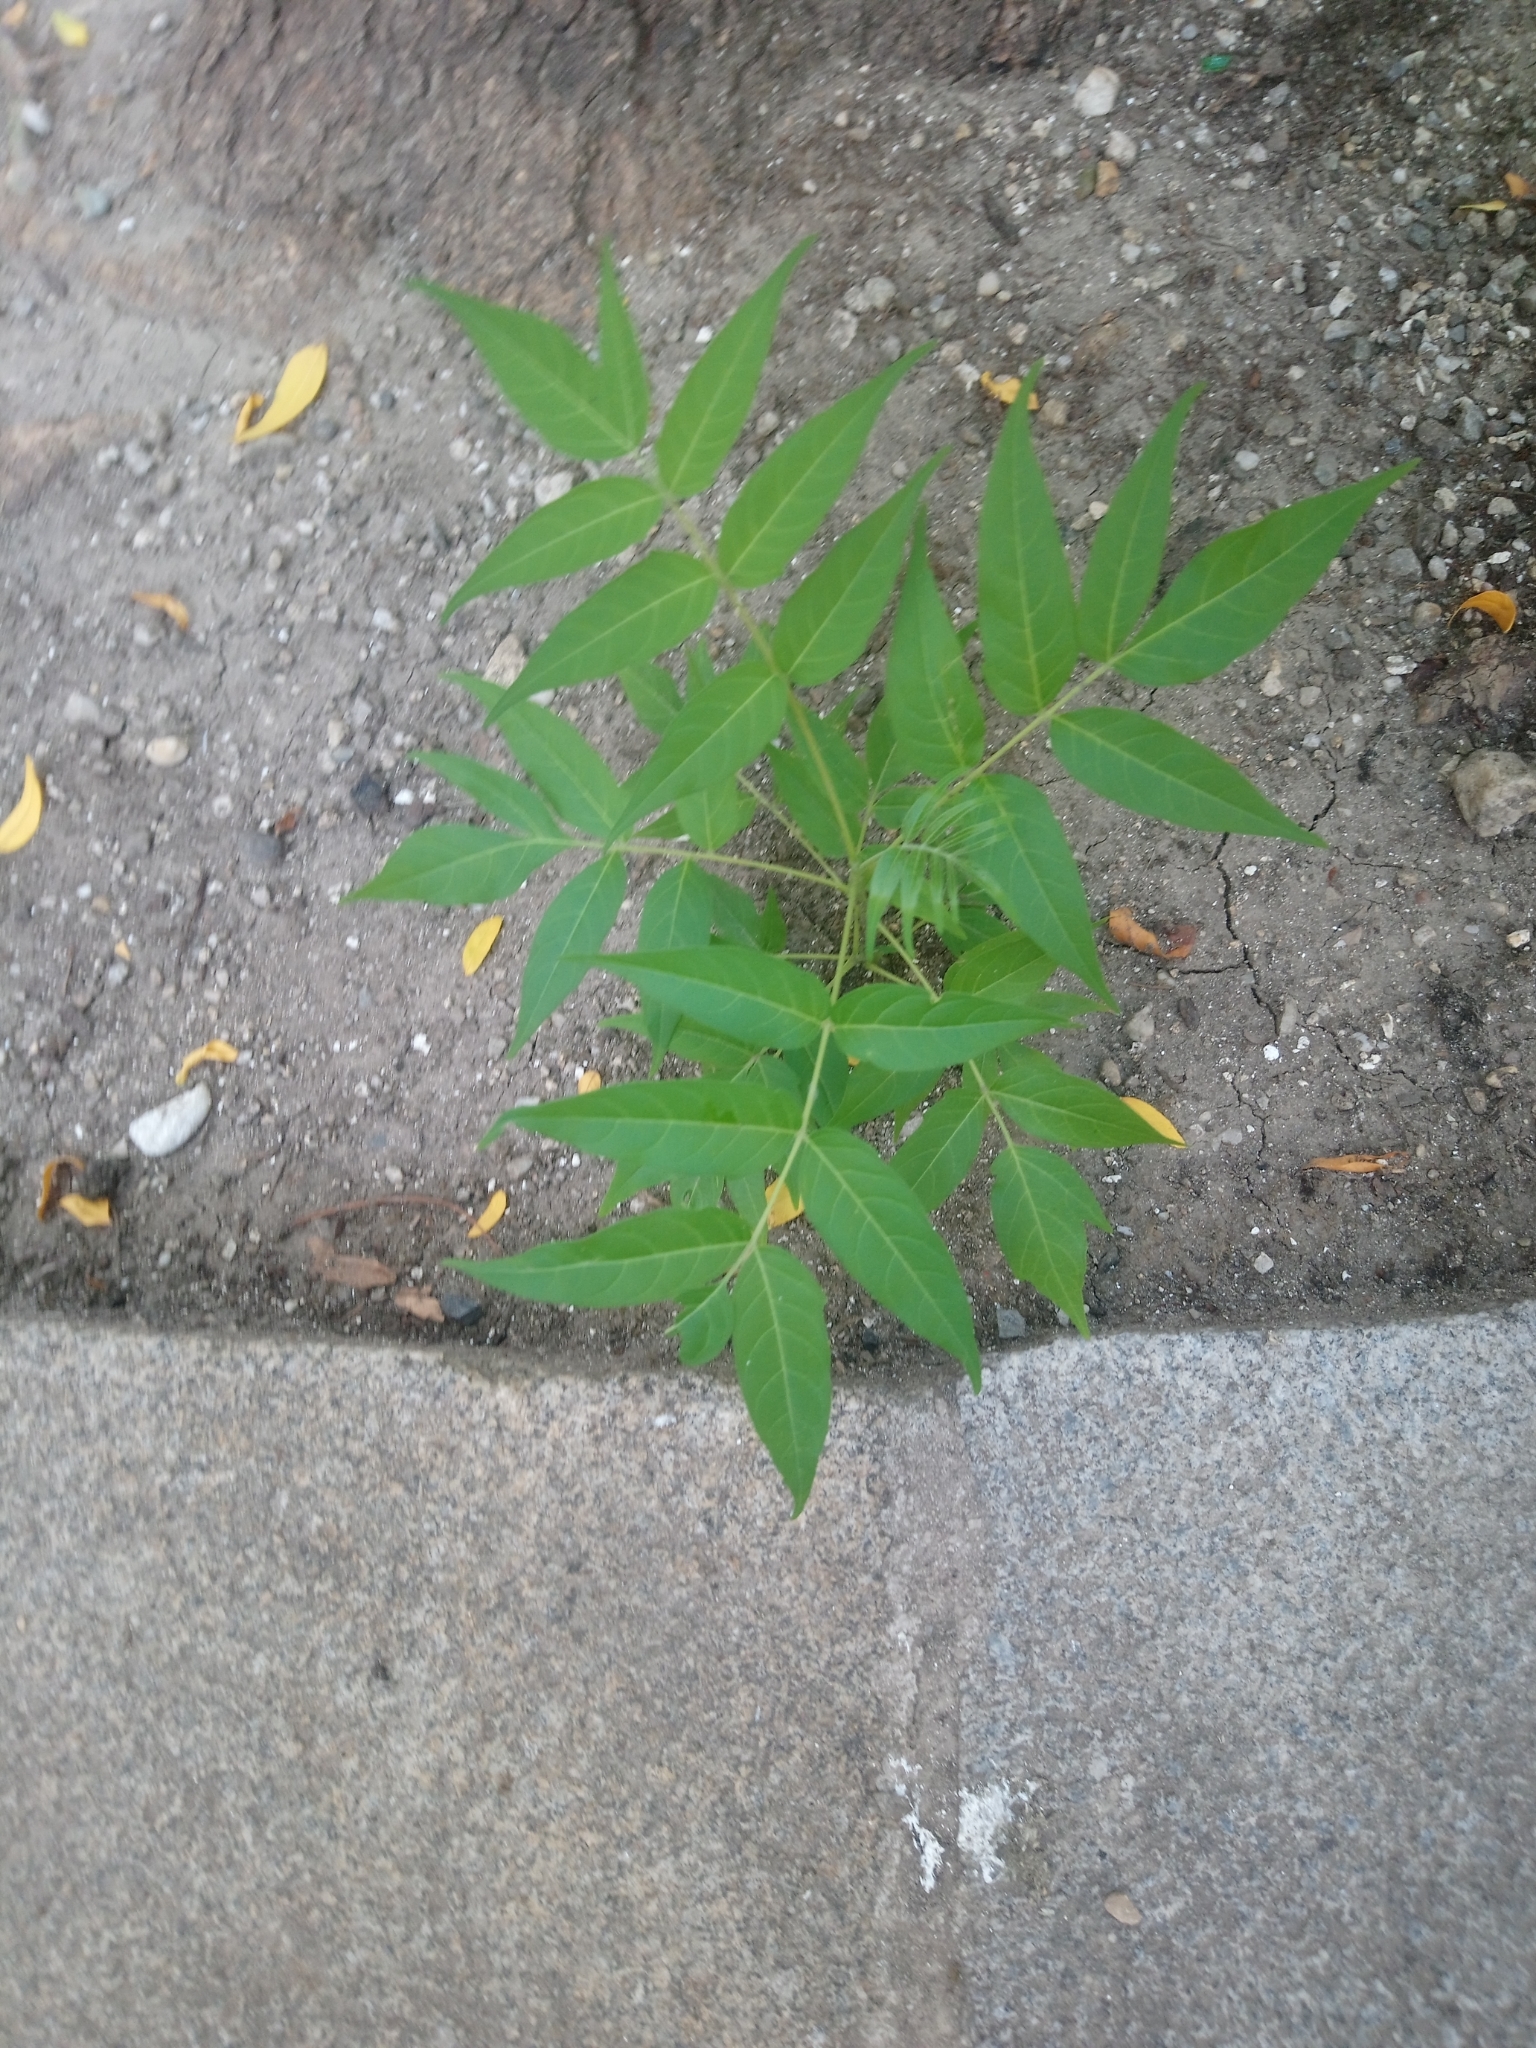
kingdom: Plantae
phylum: Tracheophyta
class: Magnoliopsida
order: Sapindales
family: Simaroubaceae
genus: Ailanthus
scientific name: Ailanthus altissima
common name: Tree-of-heaven
